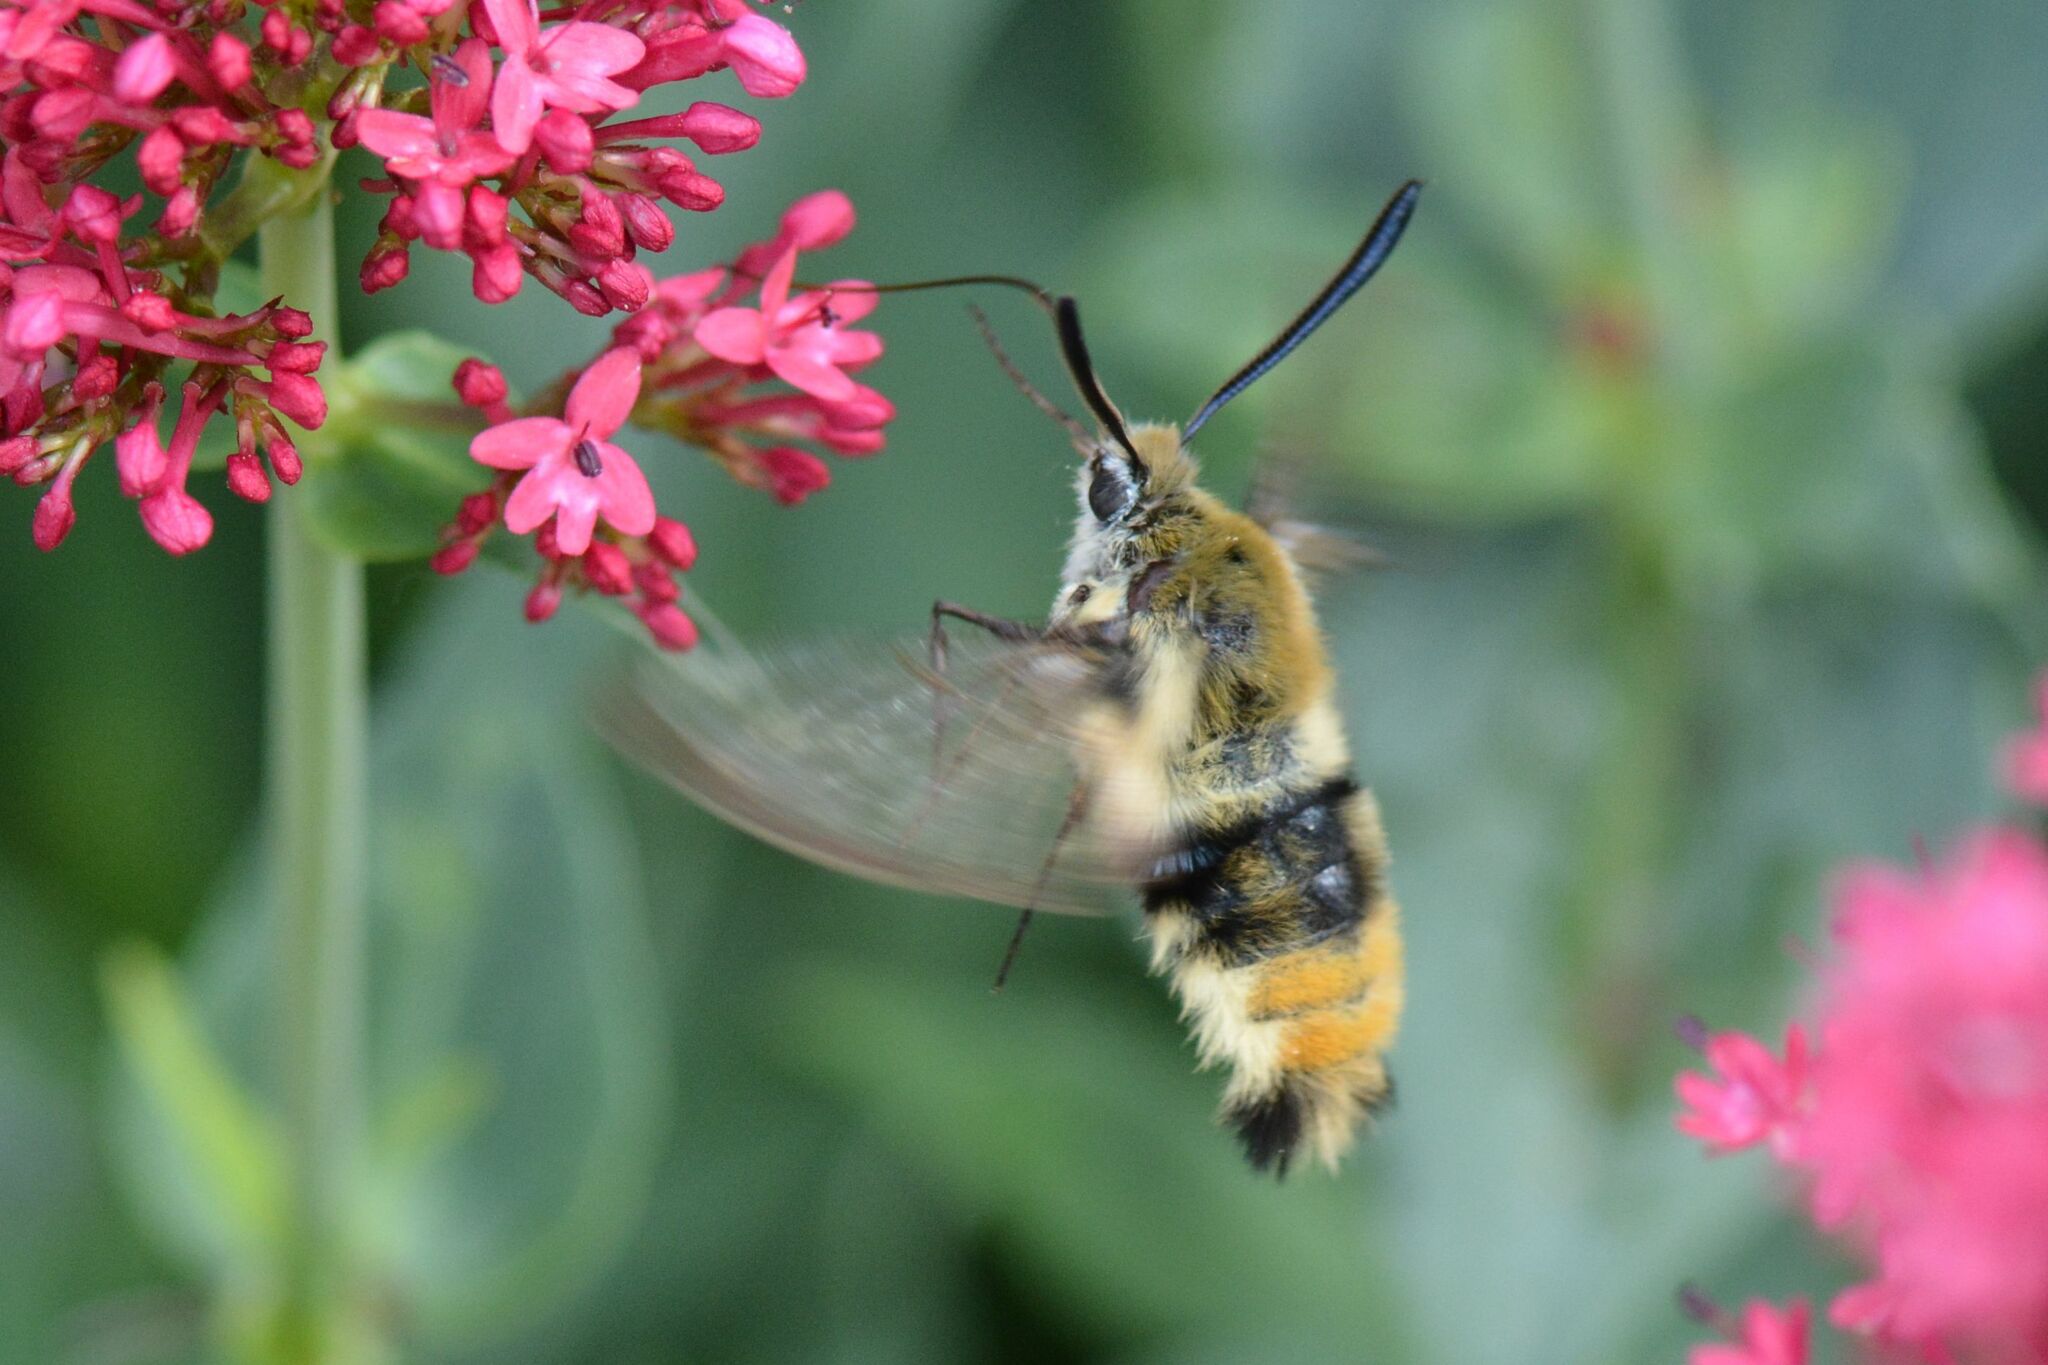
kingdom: Animalia
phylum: Arthropoda
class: Insecta
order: Lepidoptera
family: Sphingidae
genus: Hemaris
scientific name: Hemaris tityus
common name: Narrow-bordered bee hawk-moth
